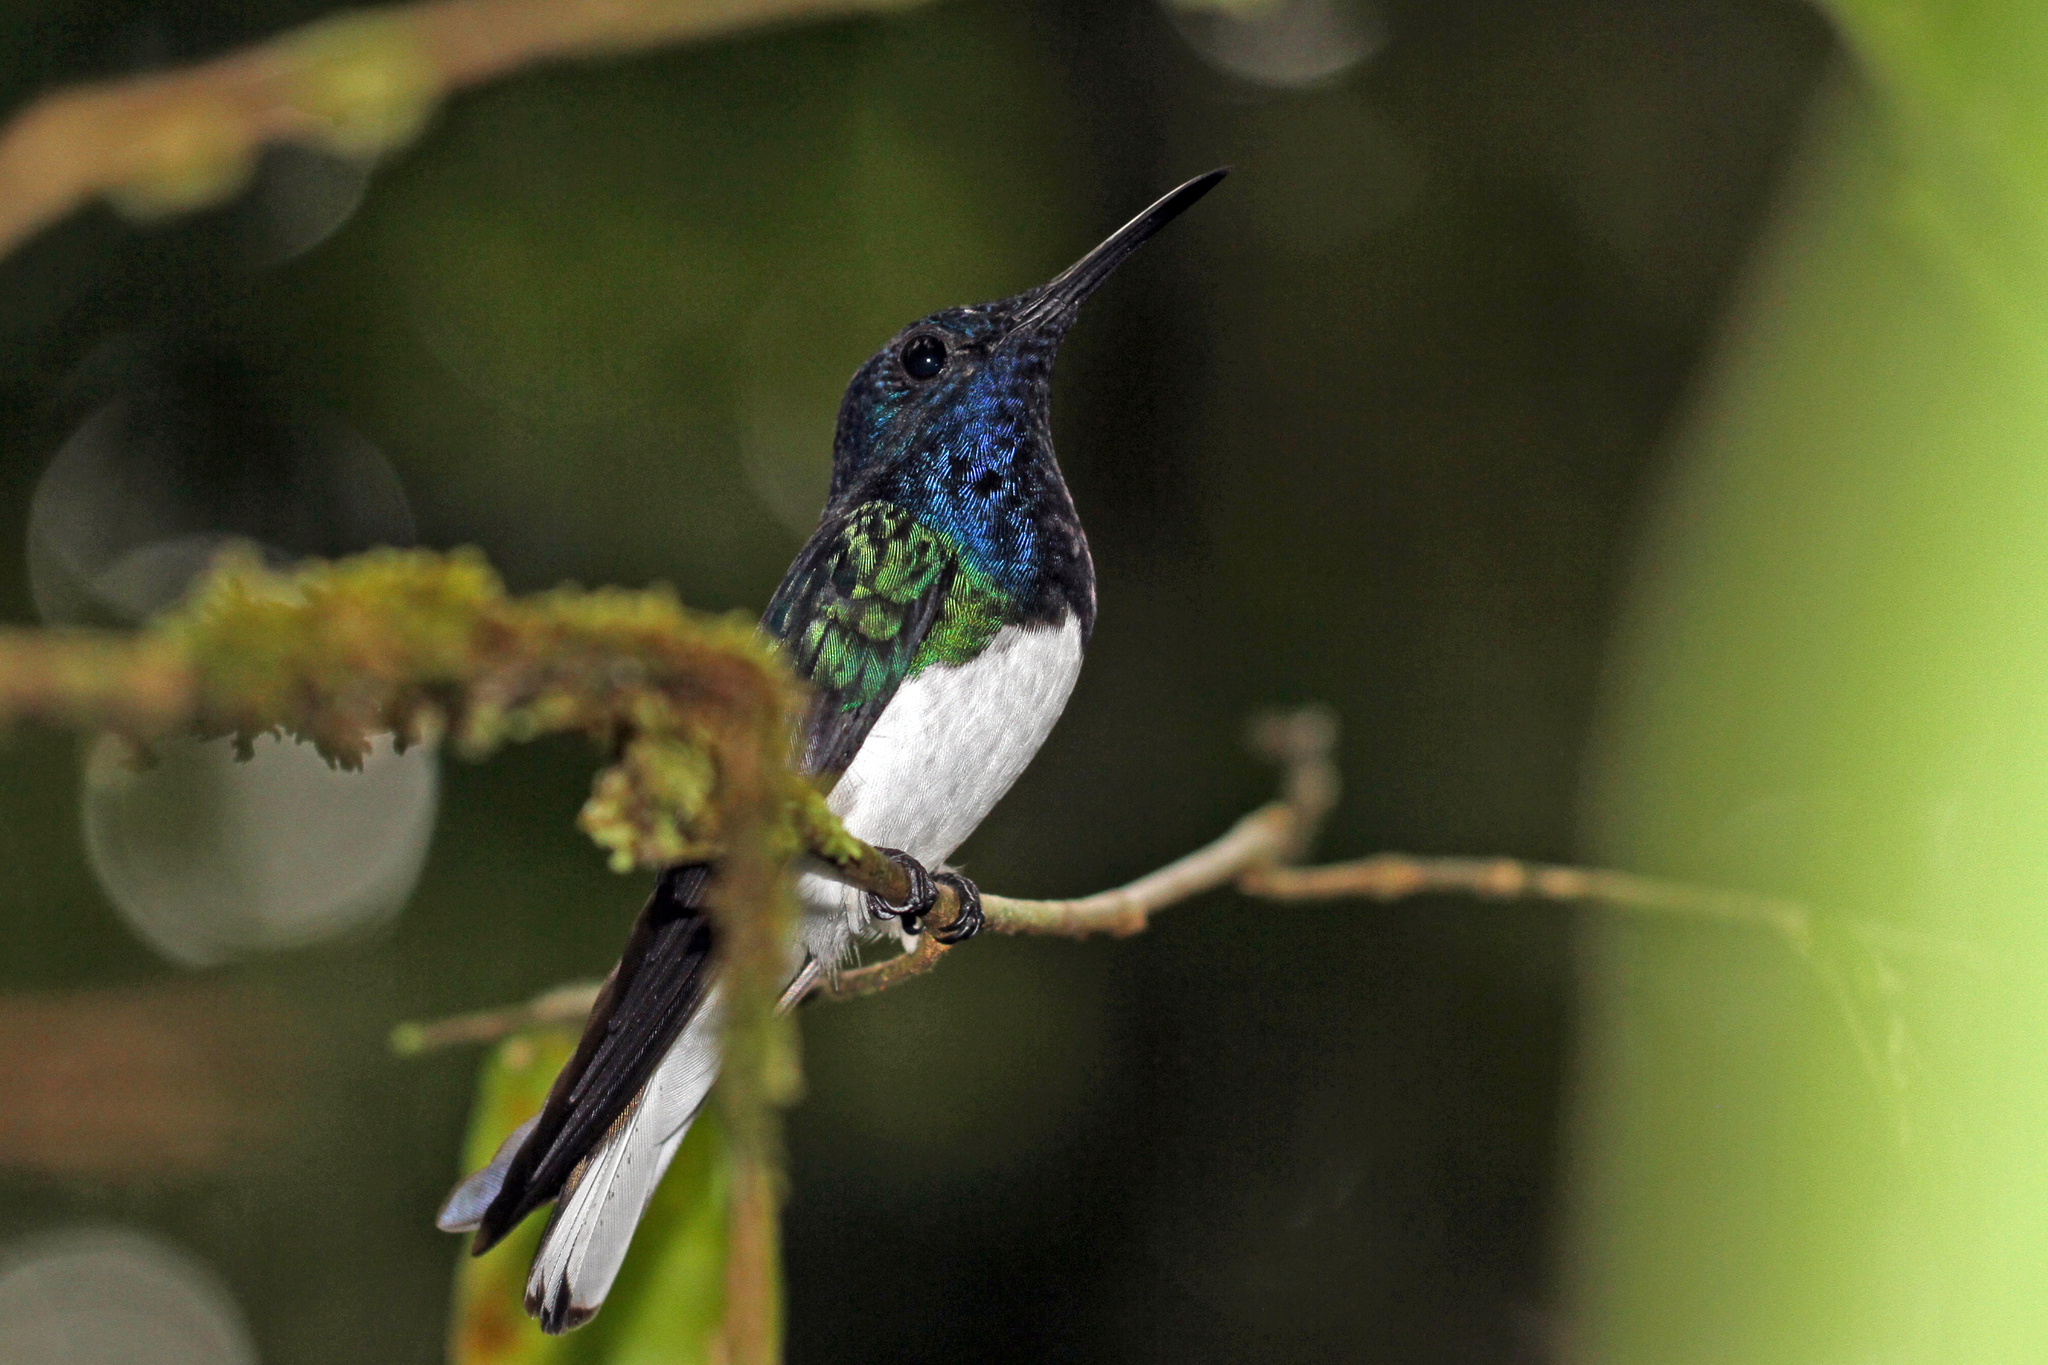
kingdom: Animalia
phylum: Chordata
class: Aves
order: Apodiformes
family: Trochilidae
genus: Florisuga
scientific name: Florisuga mellivora
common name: White-necked jacobin
